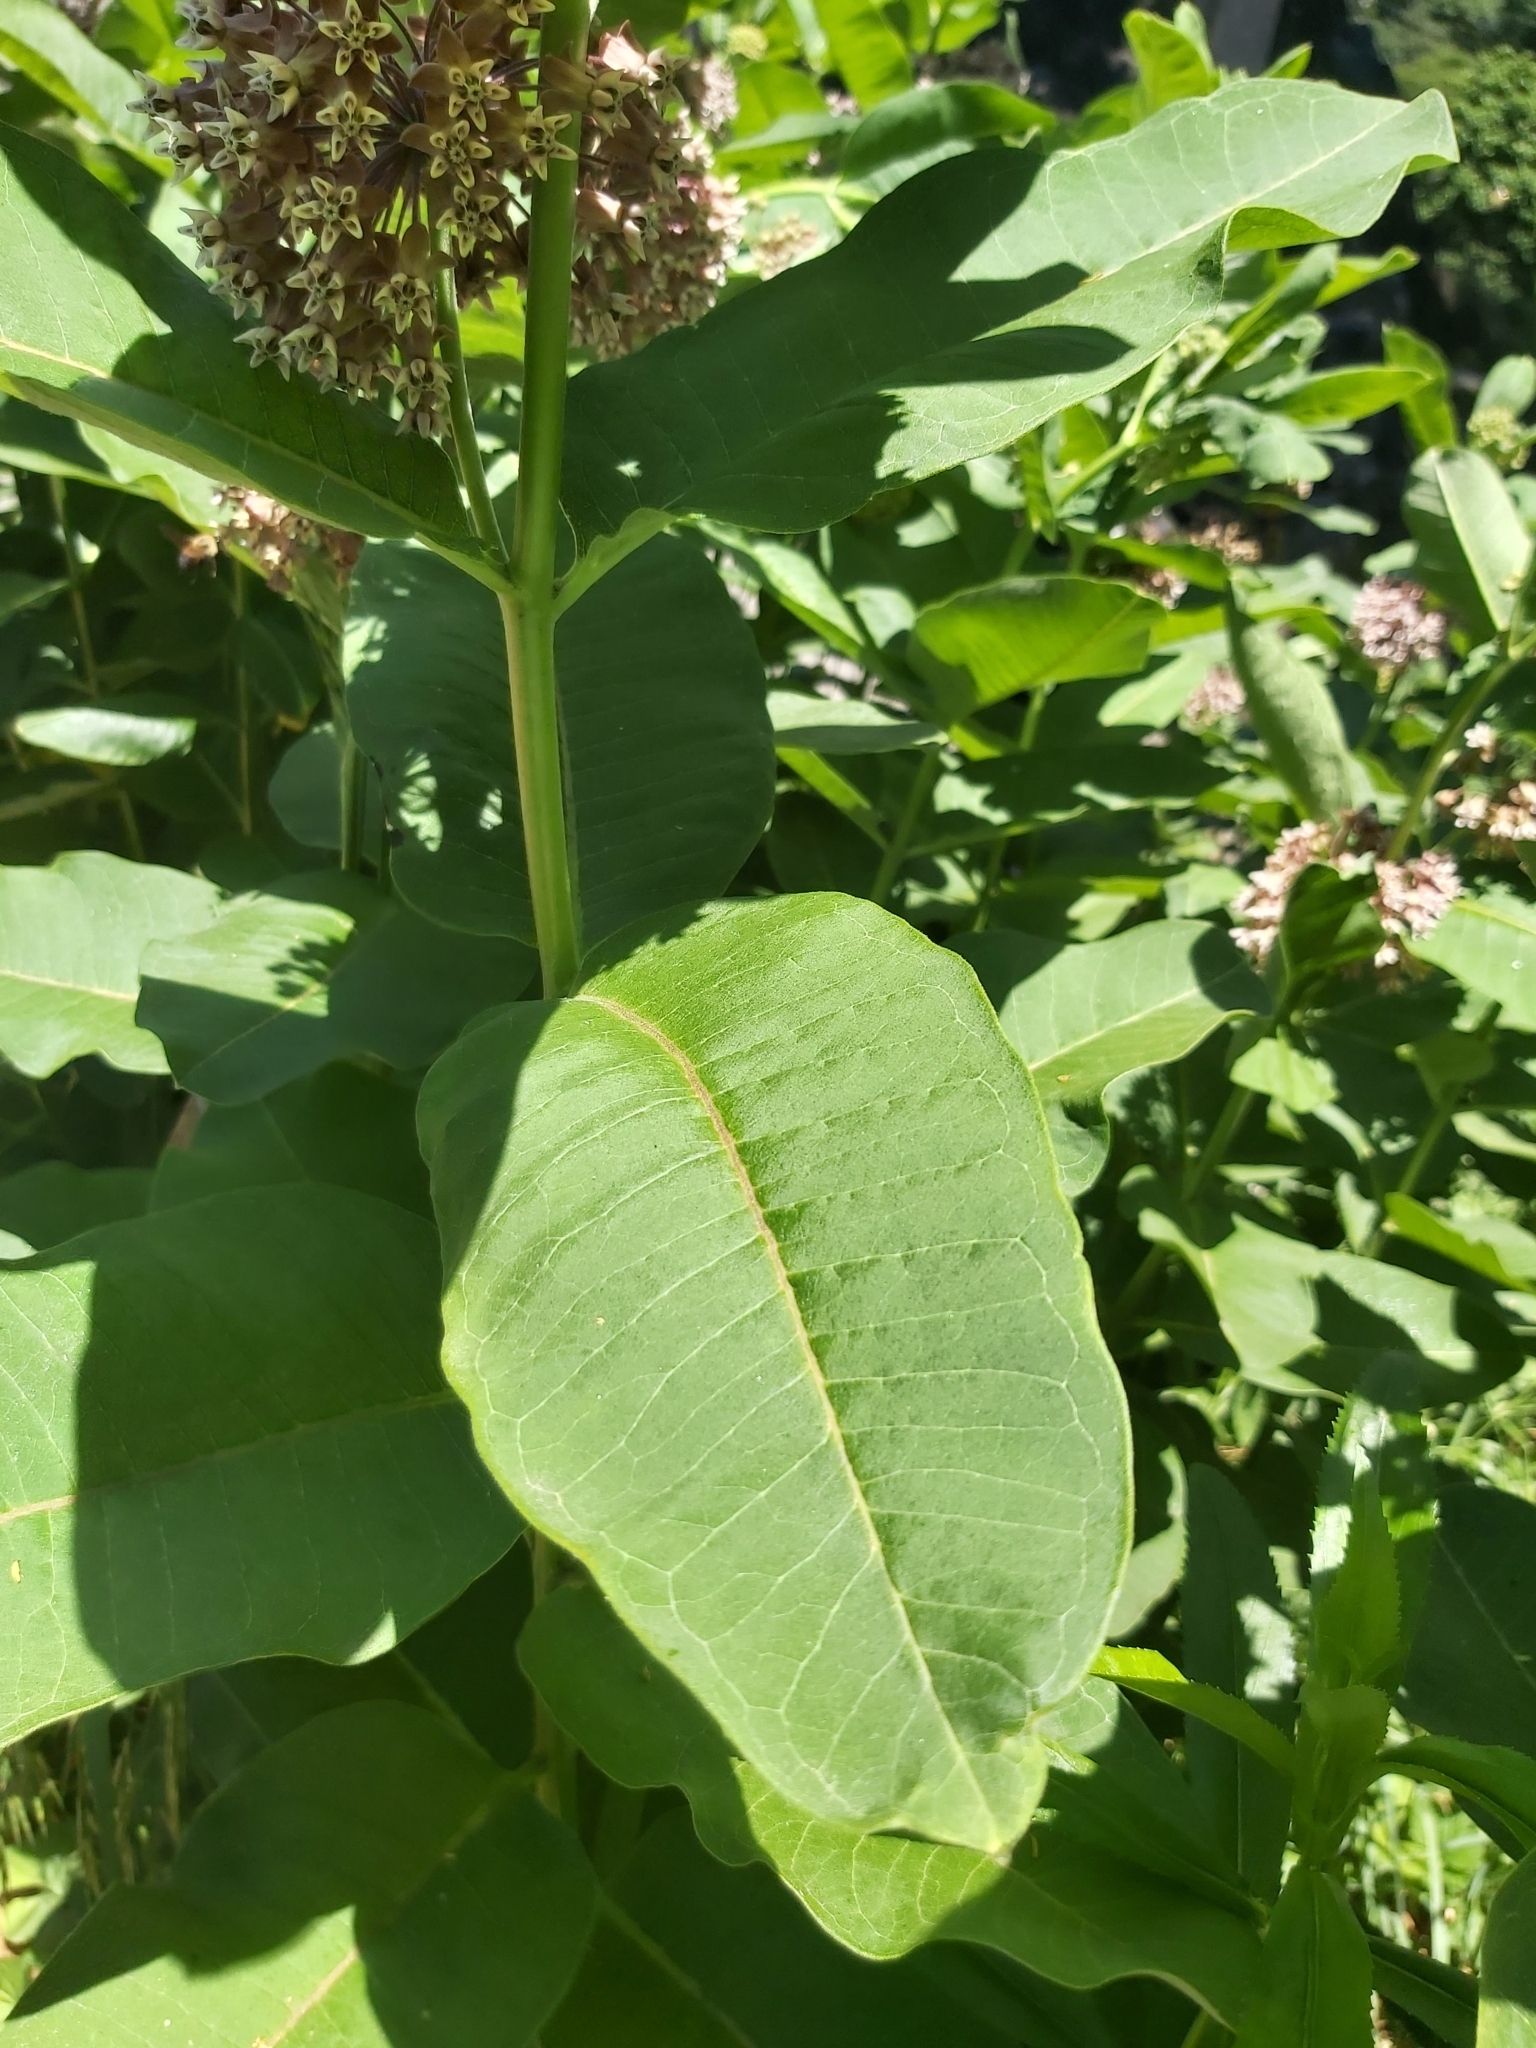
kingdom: Plantae
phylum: Tracheophyta
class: Magnoliopsida
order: Gentianales
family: Apocynaceae
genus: Asclepias
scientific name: Asclepias syriaca
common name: Common milkweed
